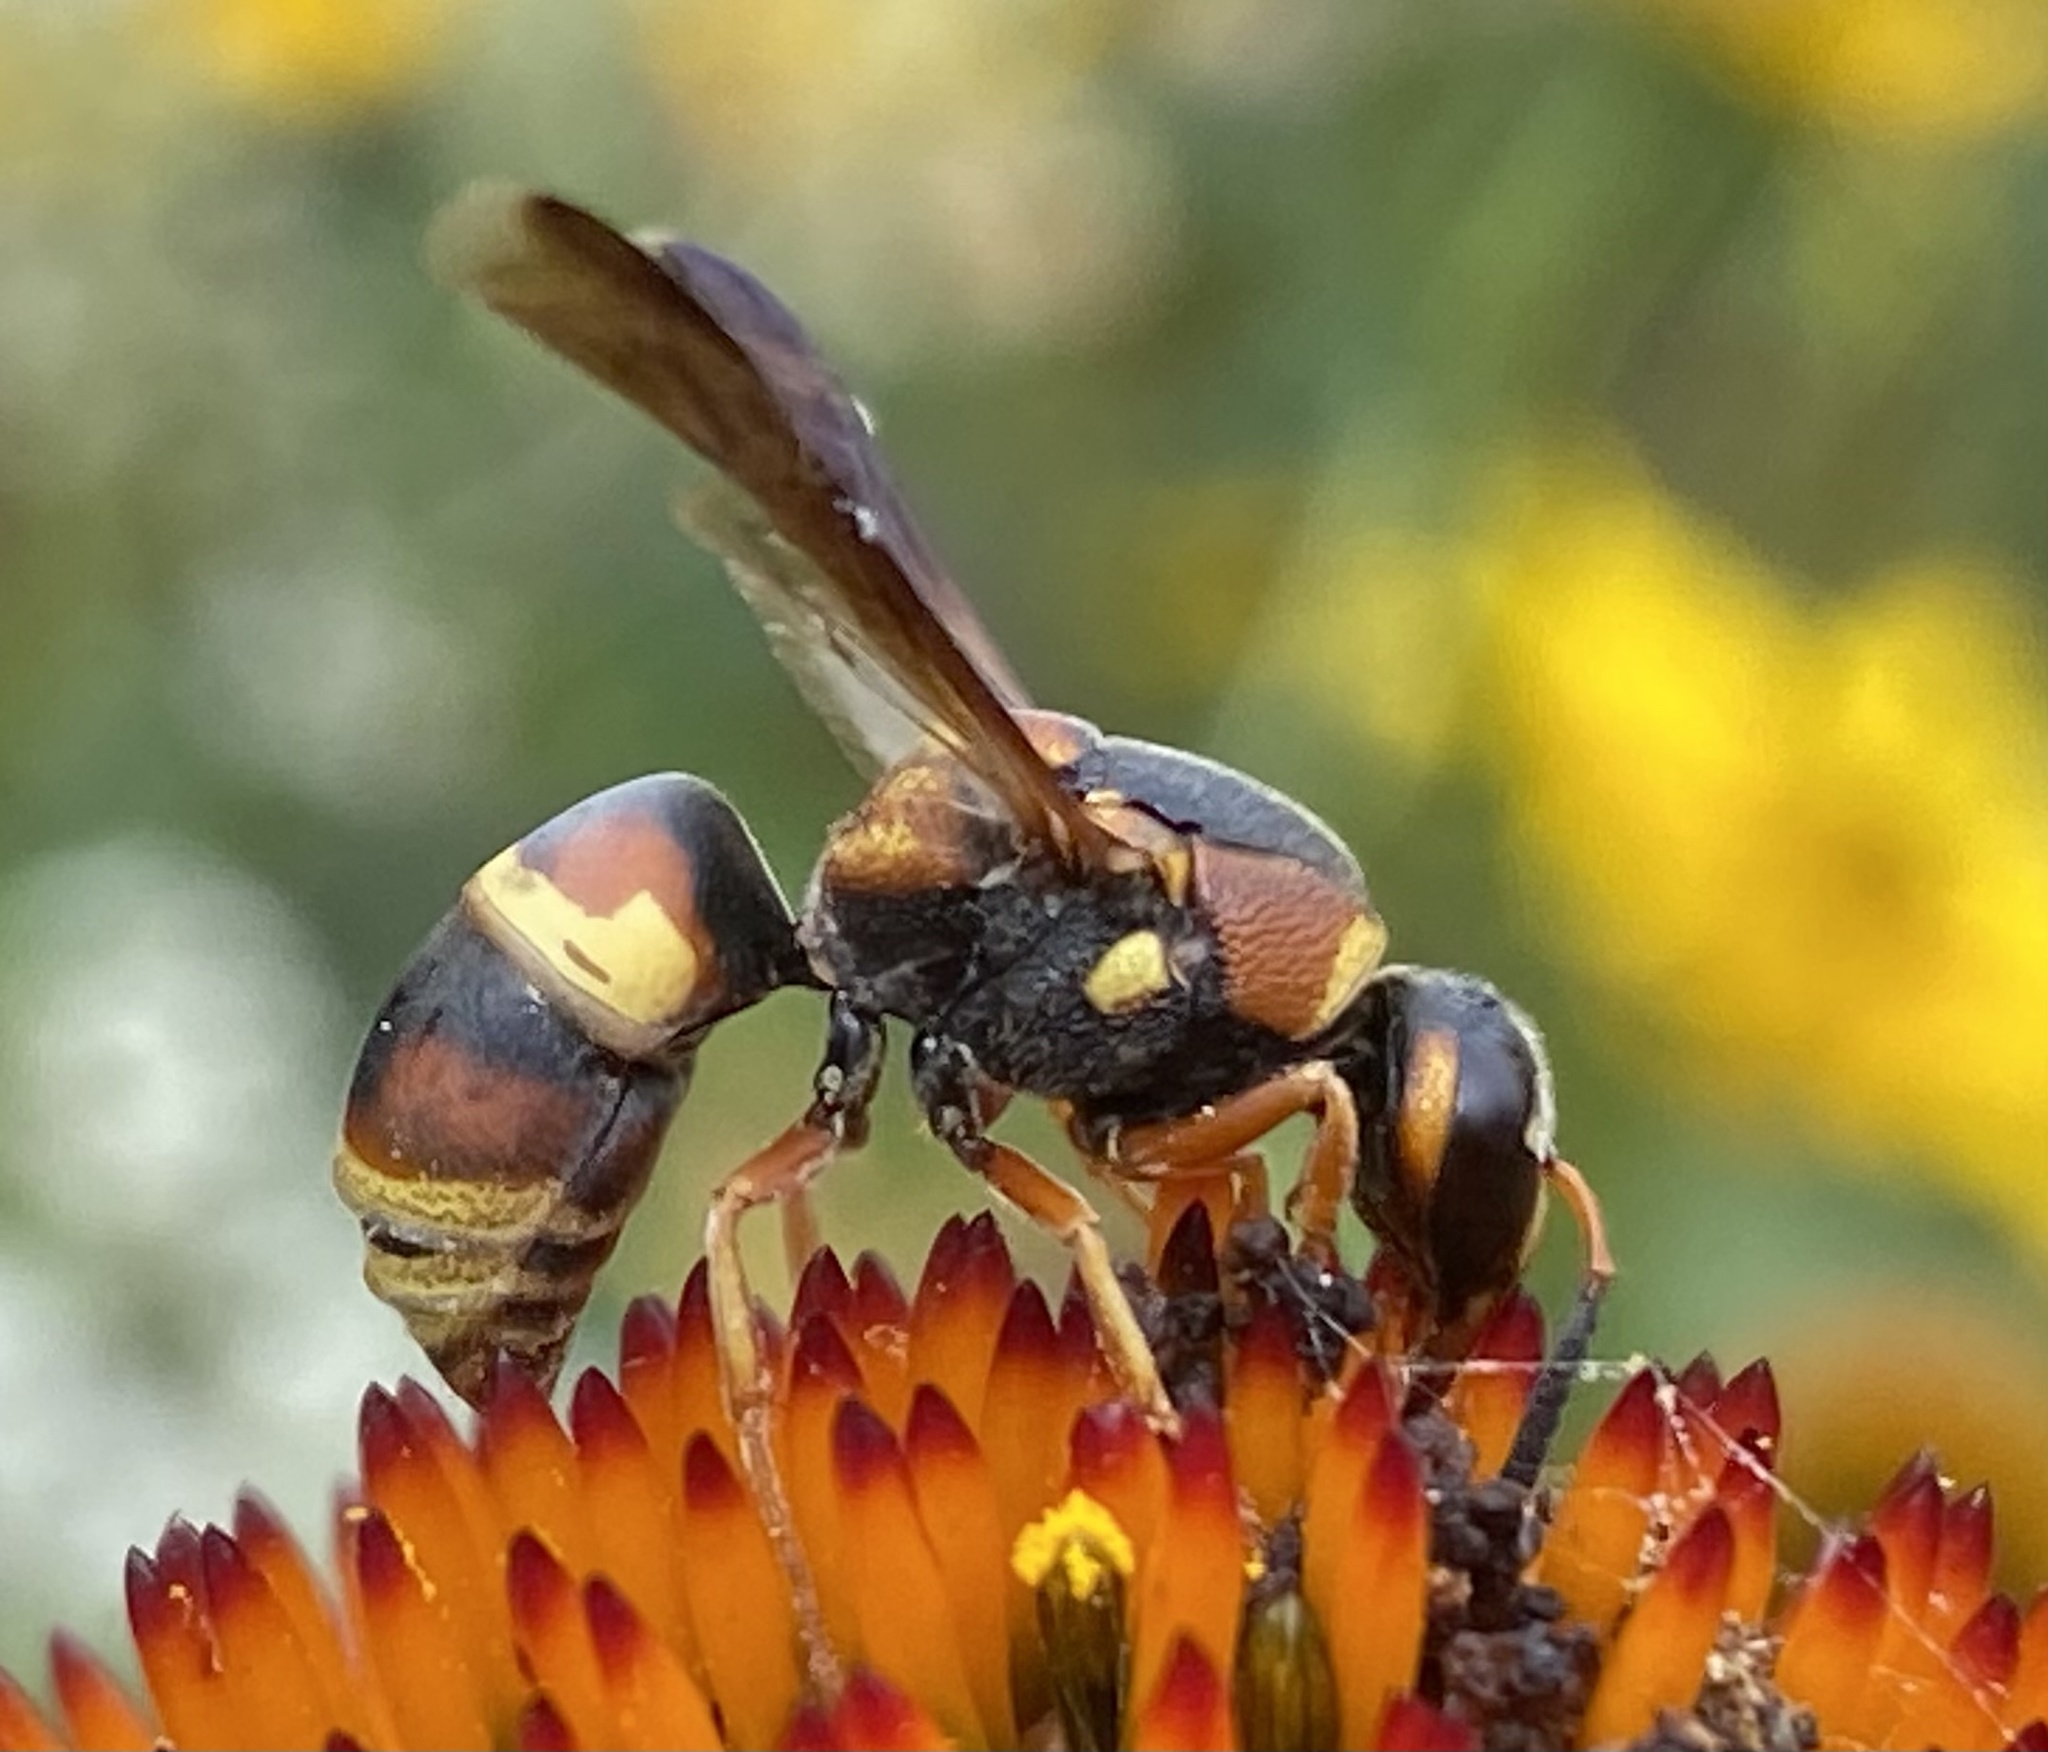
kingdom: Animalia
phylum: Arthropoda
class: Insecta
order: Hymenoptera
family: Eumenidae
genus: Euodynerus
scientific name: Euodynerus hidalgo
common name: Wasp
